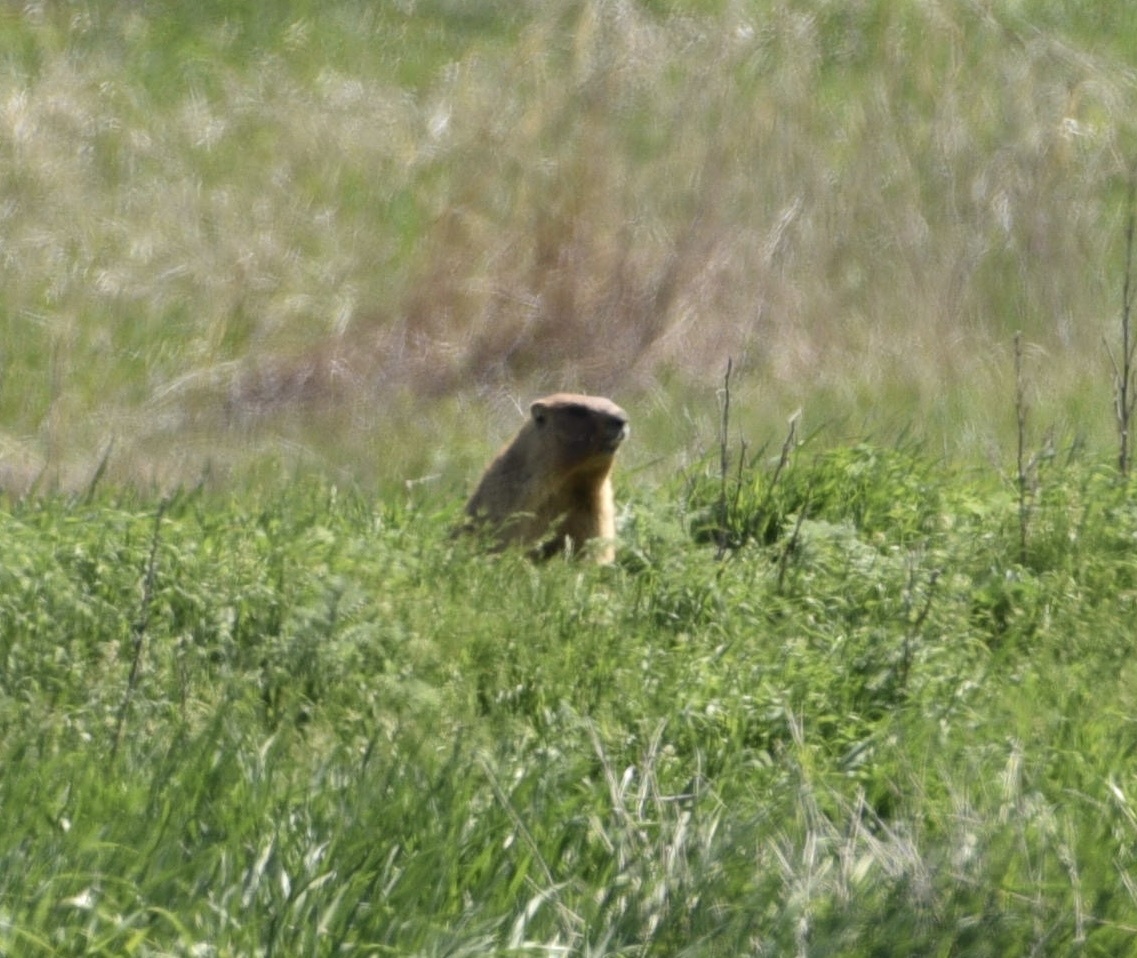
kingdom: Animalia
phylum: Chordata
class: Mammalia
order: Rodentia
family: Sciuridae
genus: Marmota
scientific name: Marmota bobak
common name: Bobak marmot
